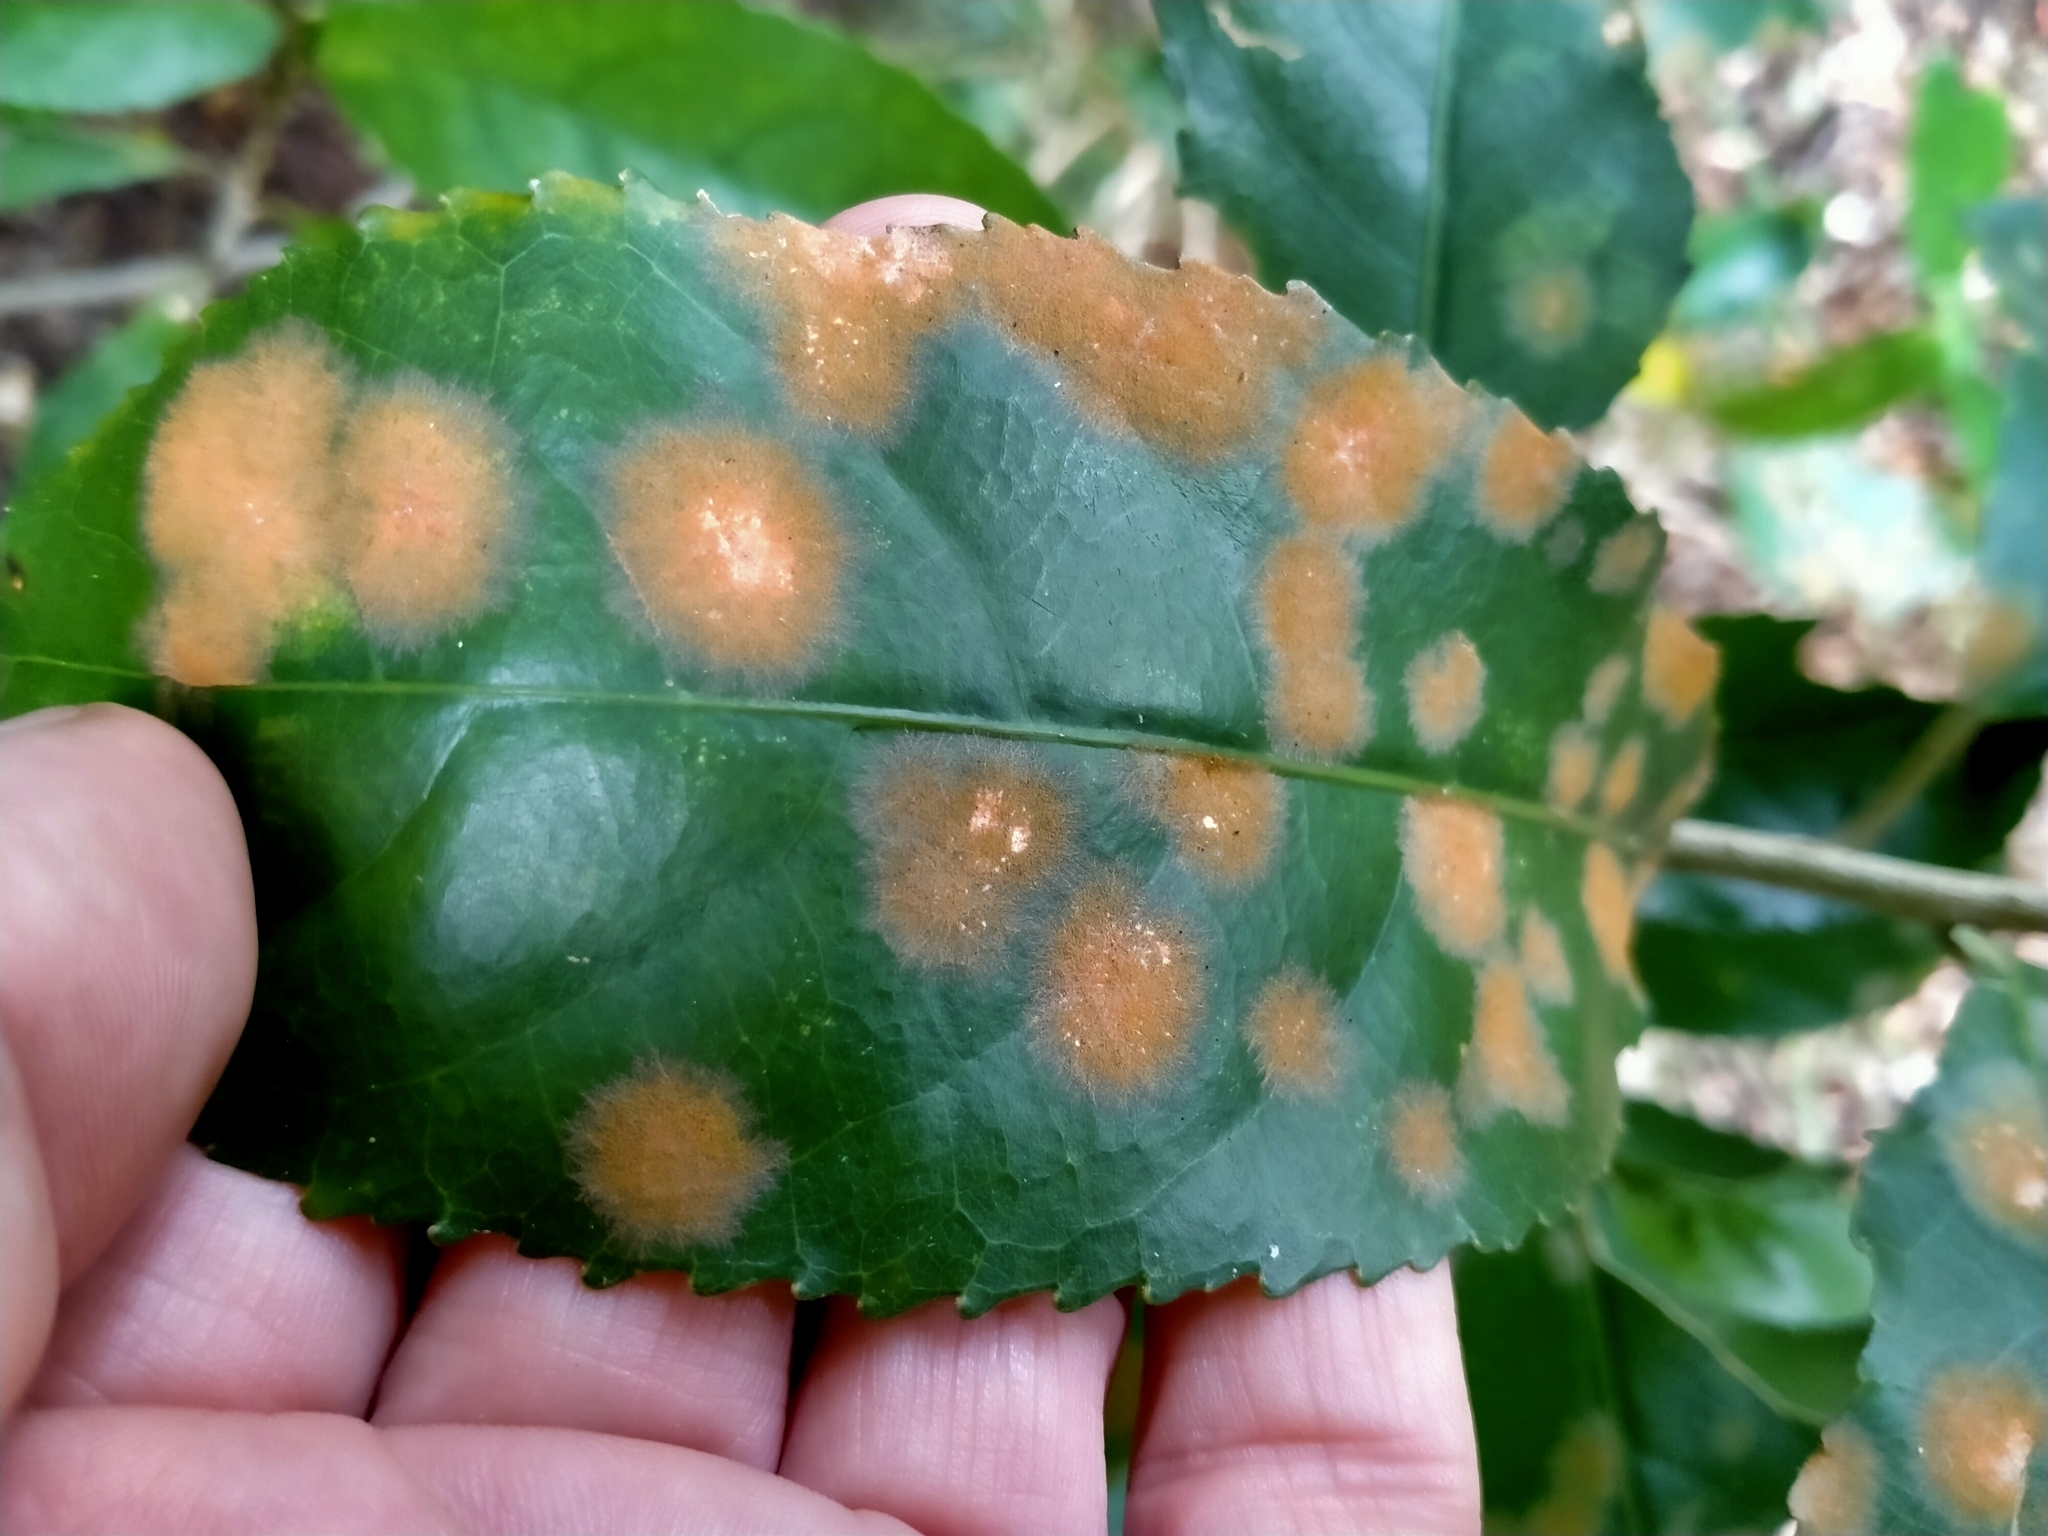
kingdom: Plantae
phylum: Chlorophyta
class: Ulvophyceae
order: Trentepohliales
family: Trentepohliaceae
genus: Cephaleuros
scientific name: Cephaleuros
